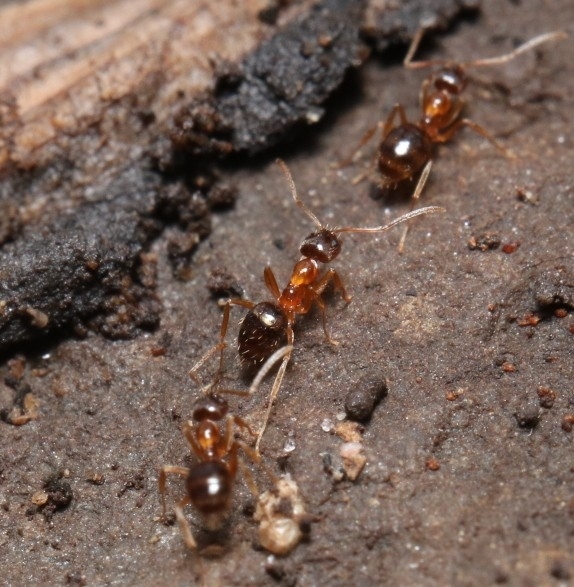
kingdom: Animalia
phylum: Arthropoda
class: Insecta
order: Hymenoptera
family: Formicidae
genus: Paratrechina
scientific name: Paratrechina flavipes
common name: Eastern asian formicine ant
